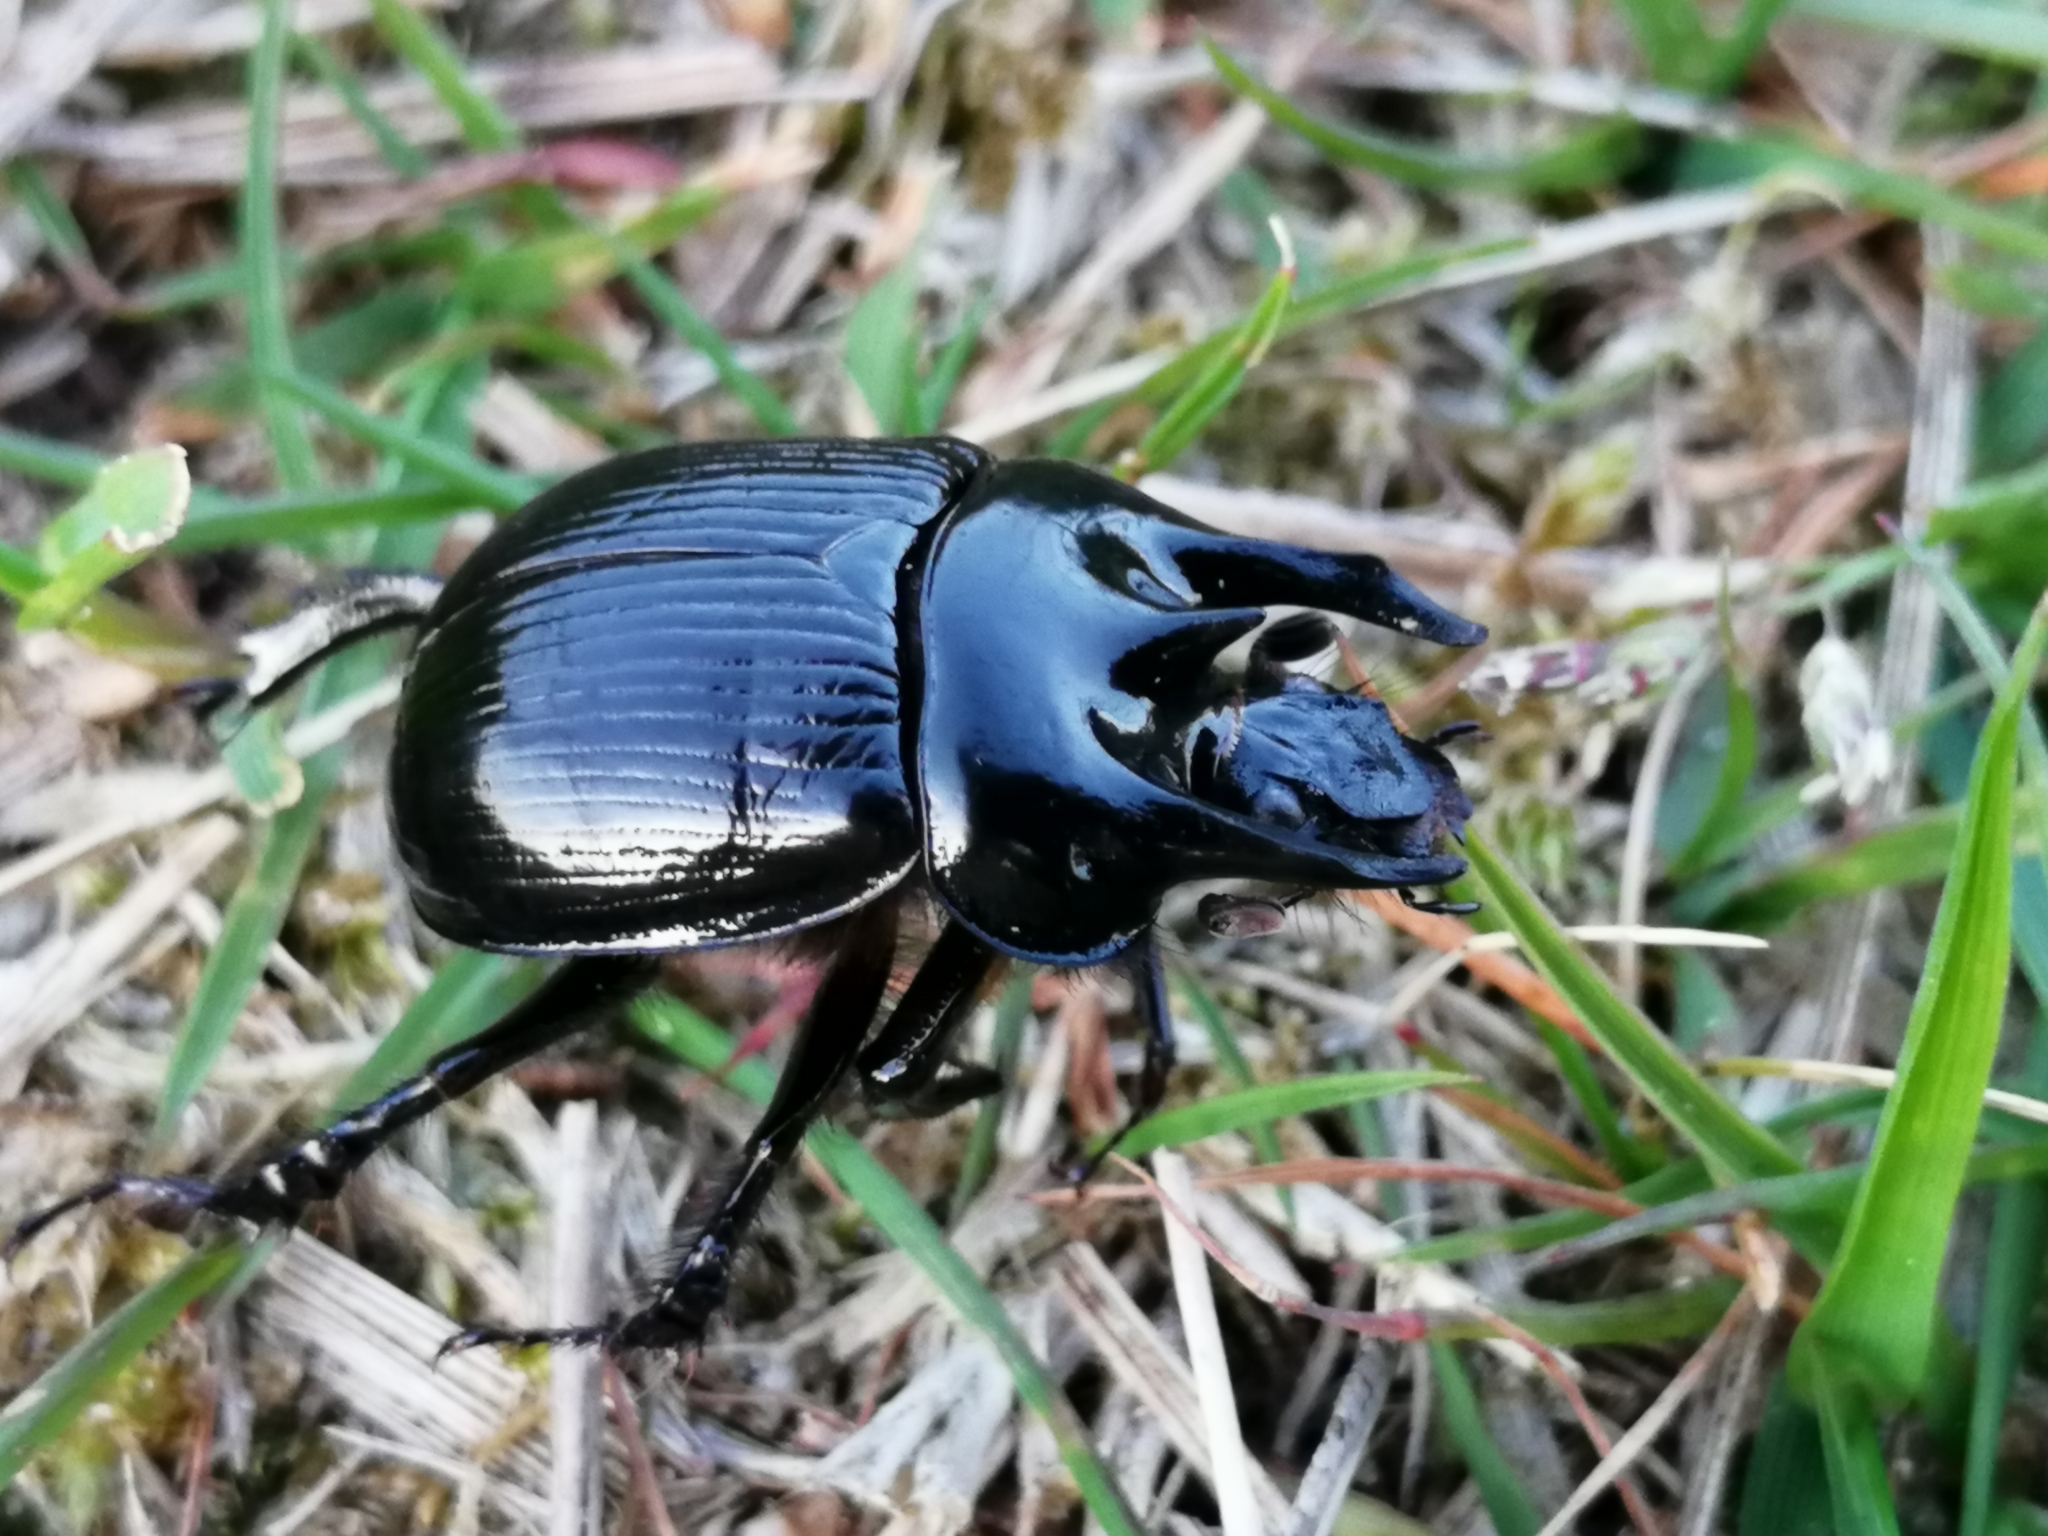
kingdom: Animalia
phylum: Arthropoda
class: Insecta
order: Coleoptera
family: Geotrupidae
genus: Typhaeus
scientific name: Typhaeus typhoeus
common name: Minotaur beetle
